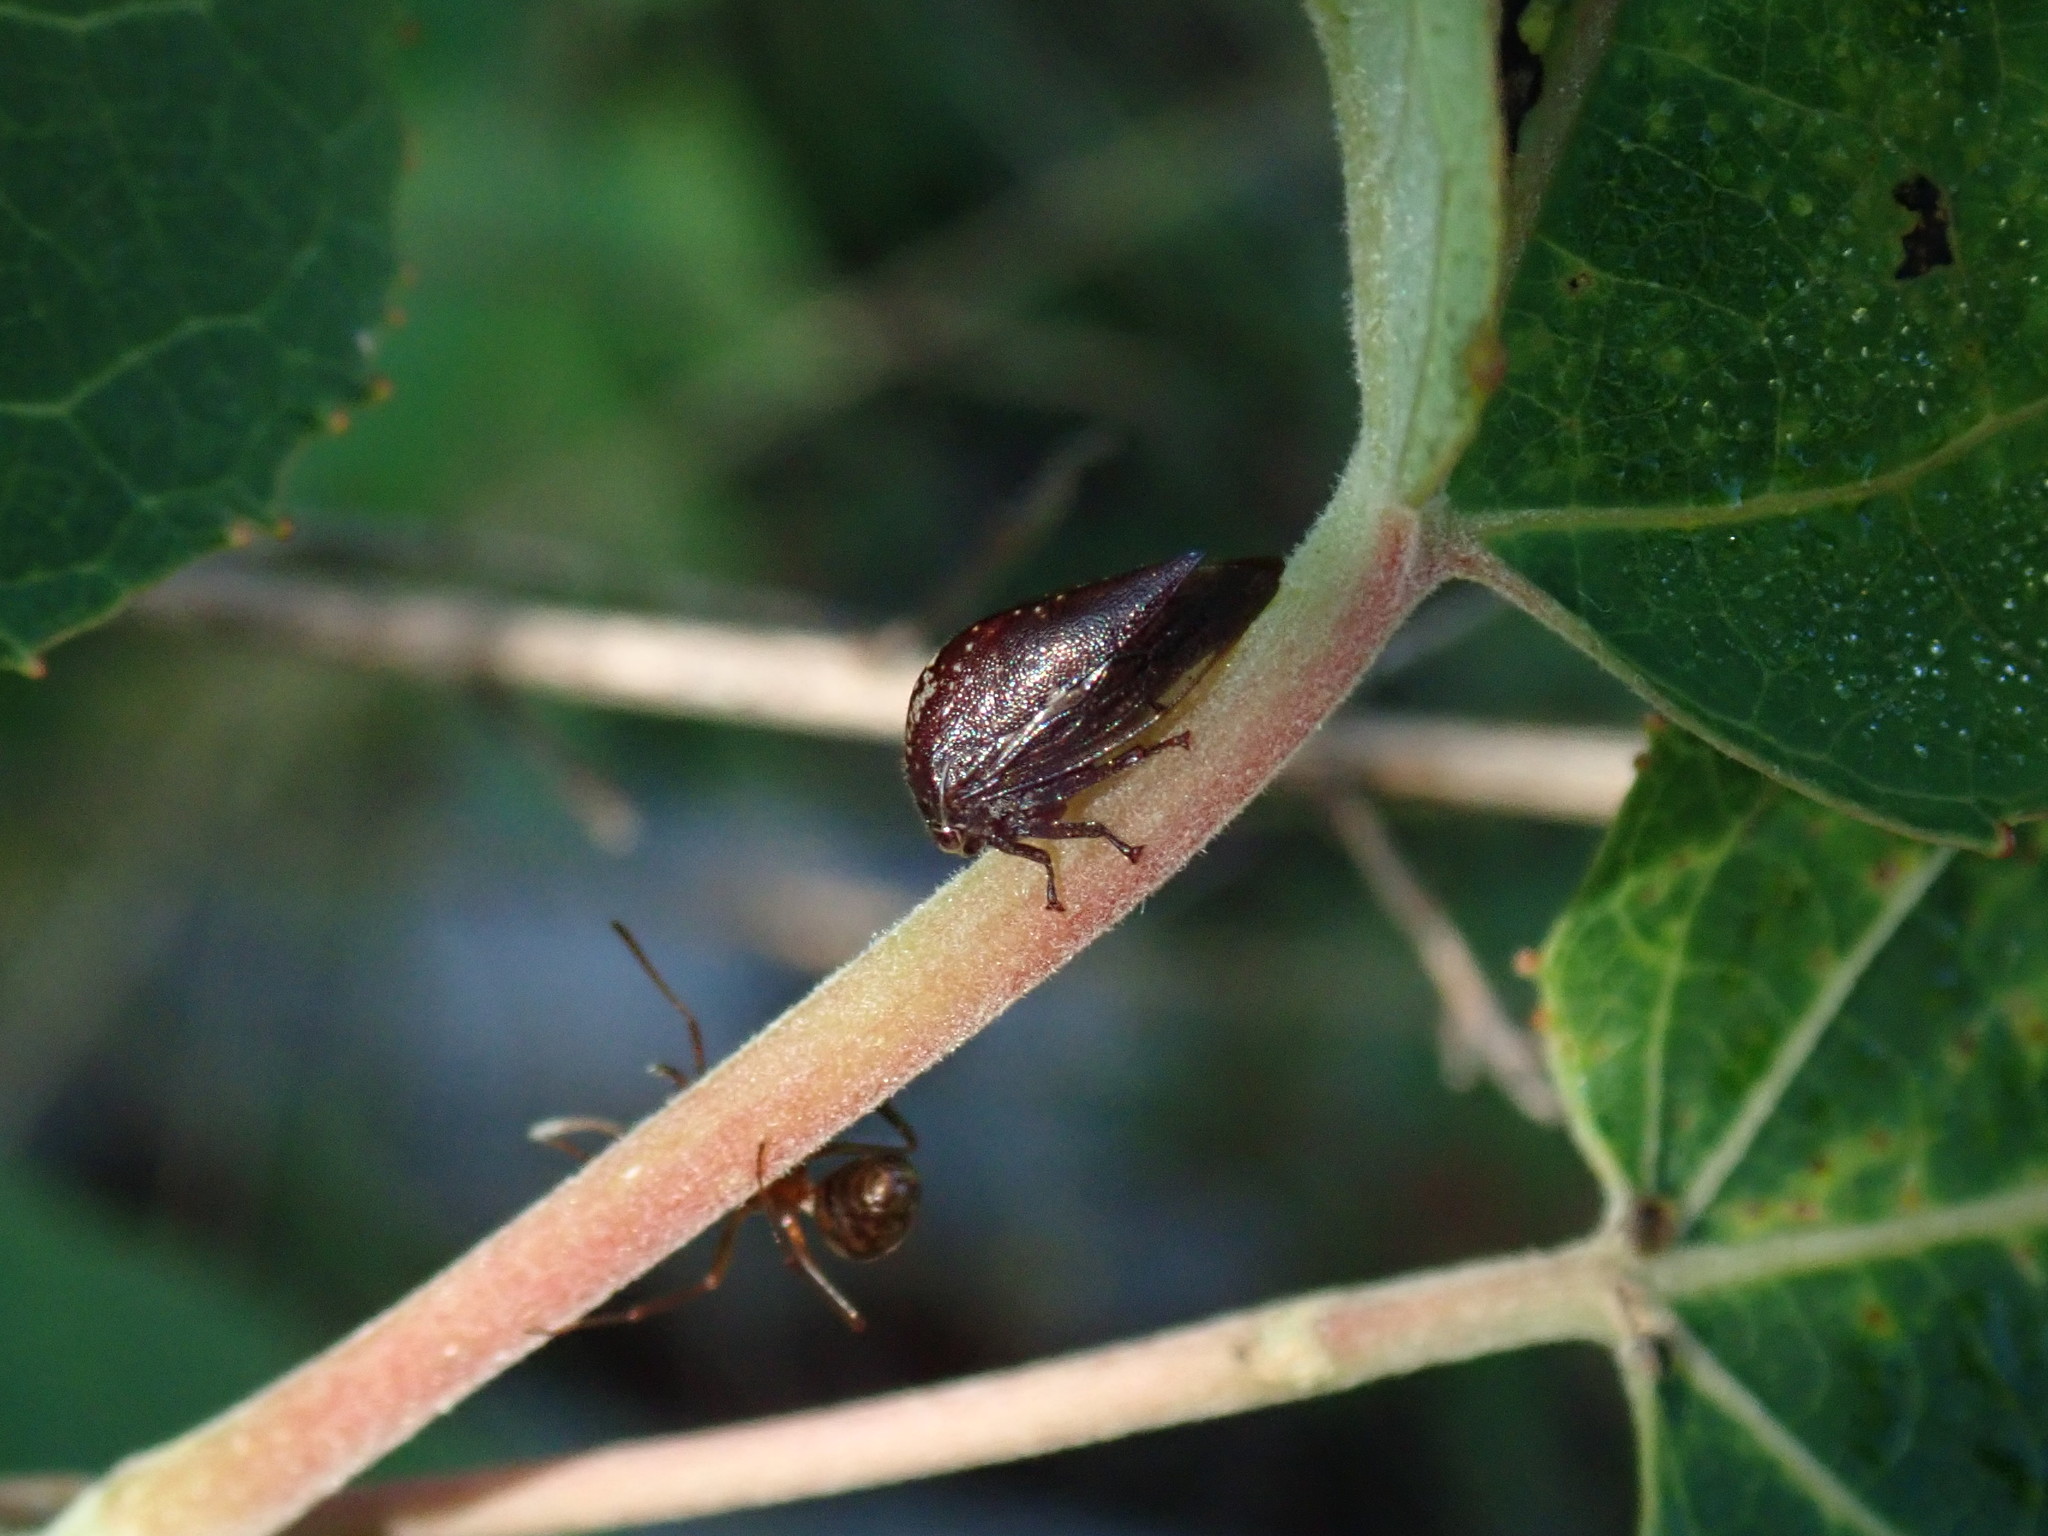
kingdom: Animalia
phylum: Arthropoda
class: Insecta
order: Hemiptera
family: Membracidae
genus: Carynota
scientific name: Carynota stupida
